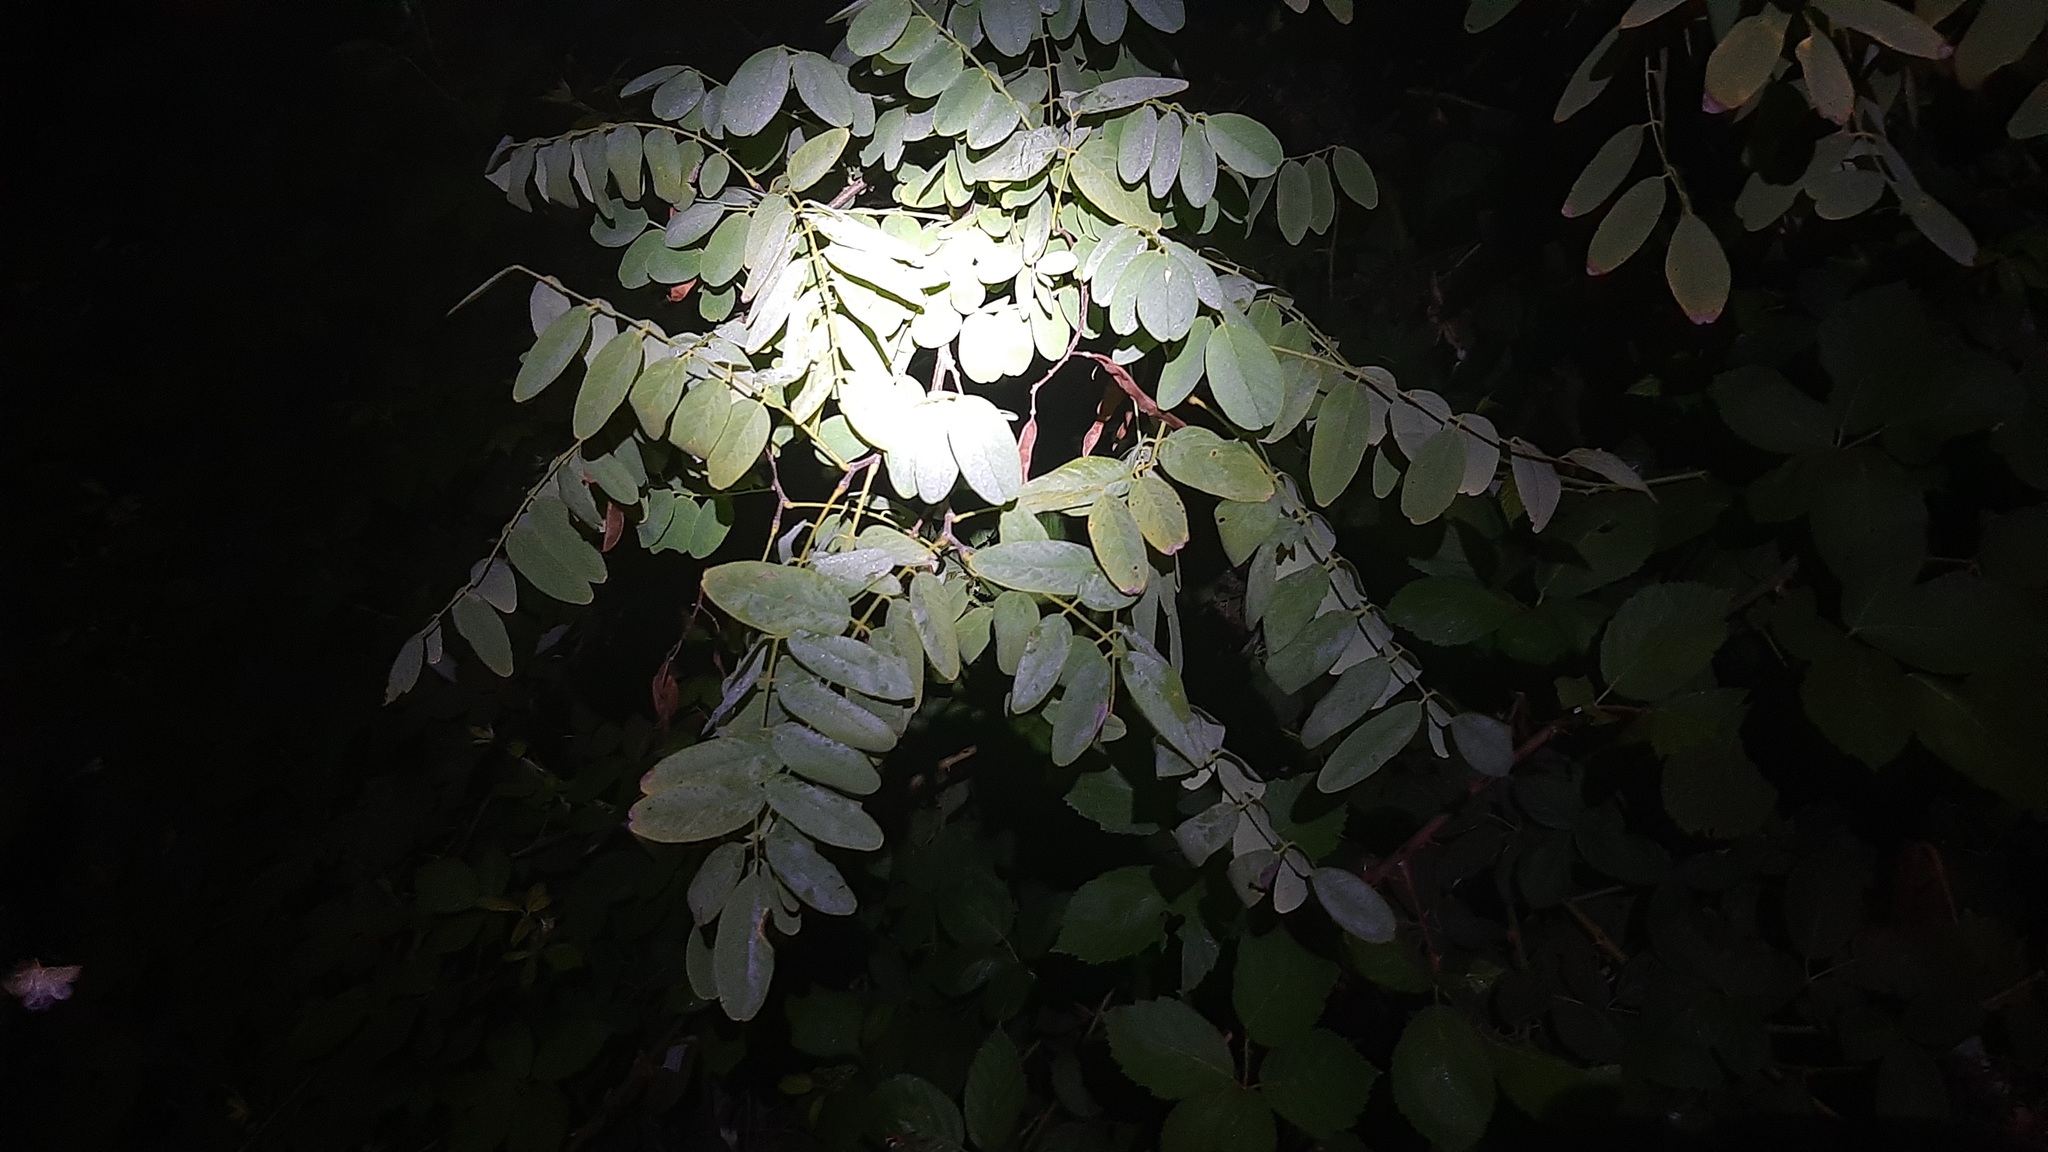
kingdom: Plantae
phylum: Tracheophyta
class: Magnoliopsida
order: Fabales
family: Fabaceae
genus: Robinia
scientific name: Robinia pseudoacacia
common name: Black locust
